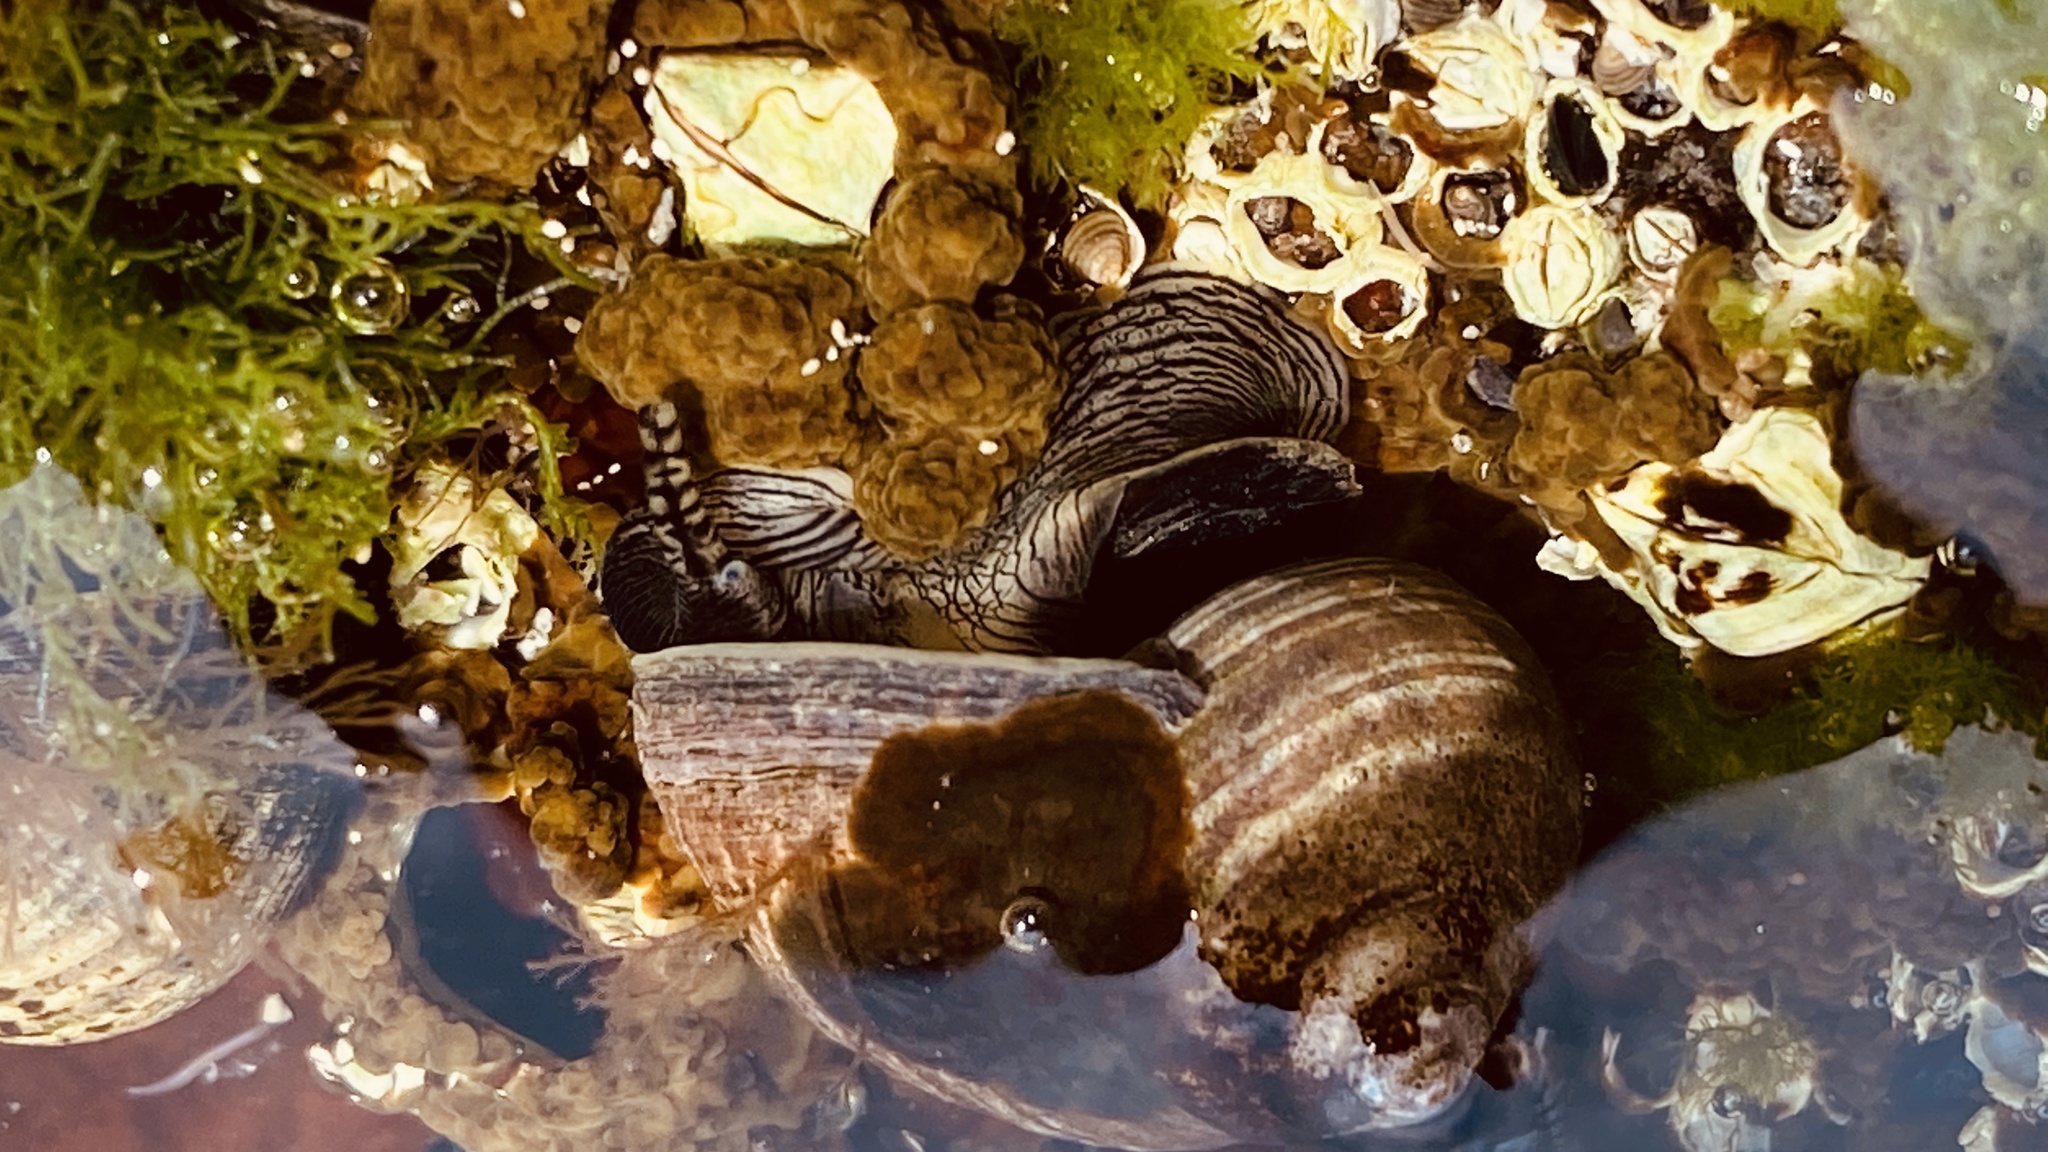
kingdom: Animalia
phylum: Mollusca
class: Gastropoda
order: Littorinimorpha
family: Littorinidae
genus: Littorina
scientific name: Littorina littorea
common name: Common periwinkle
